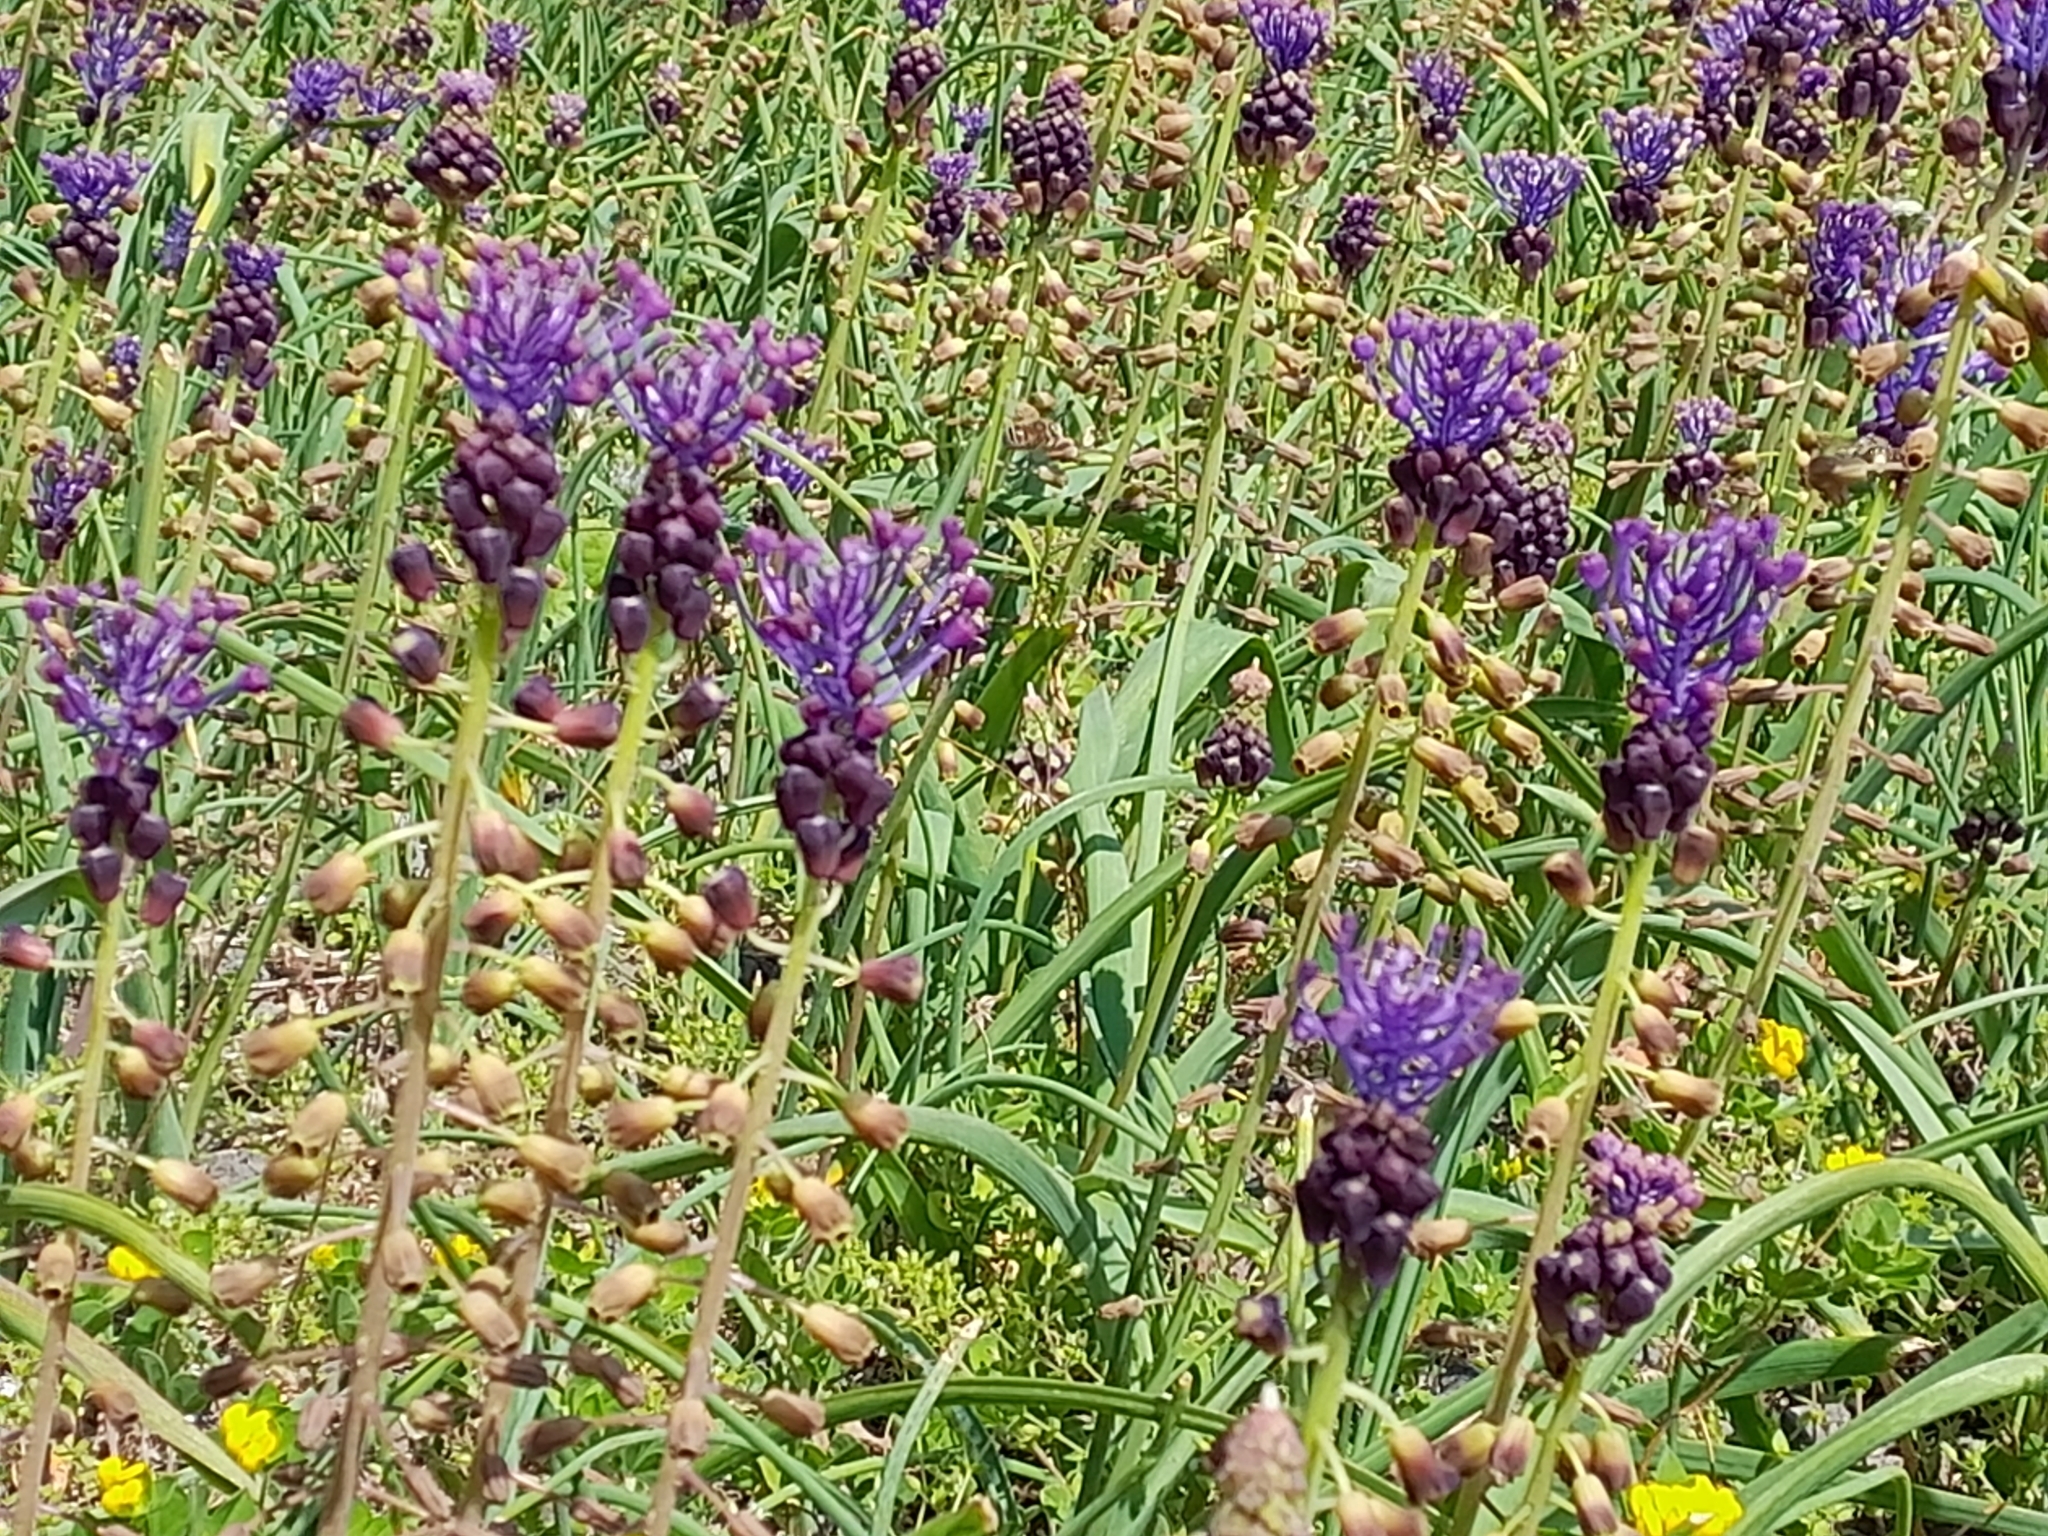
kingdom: Plantae
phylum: Tracheophyta
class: Liliopsida
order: Asparagales
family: Asparagaceae
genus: Muscari
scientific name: Muscari comosum
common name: Tassel hyacinth
